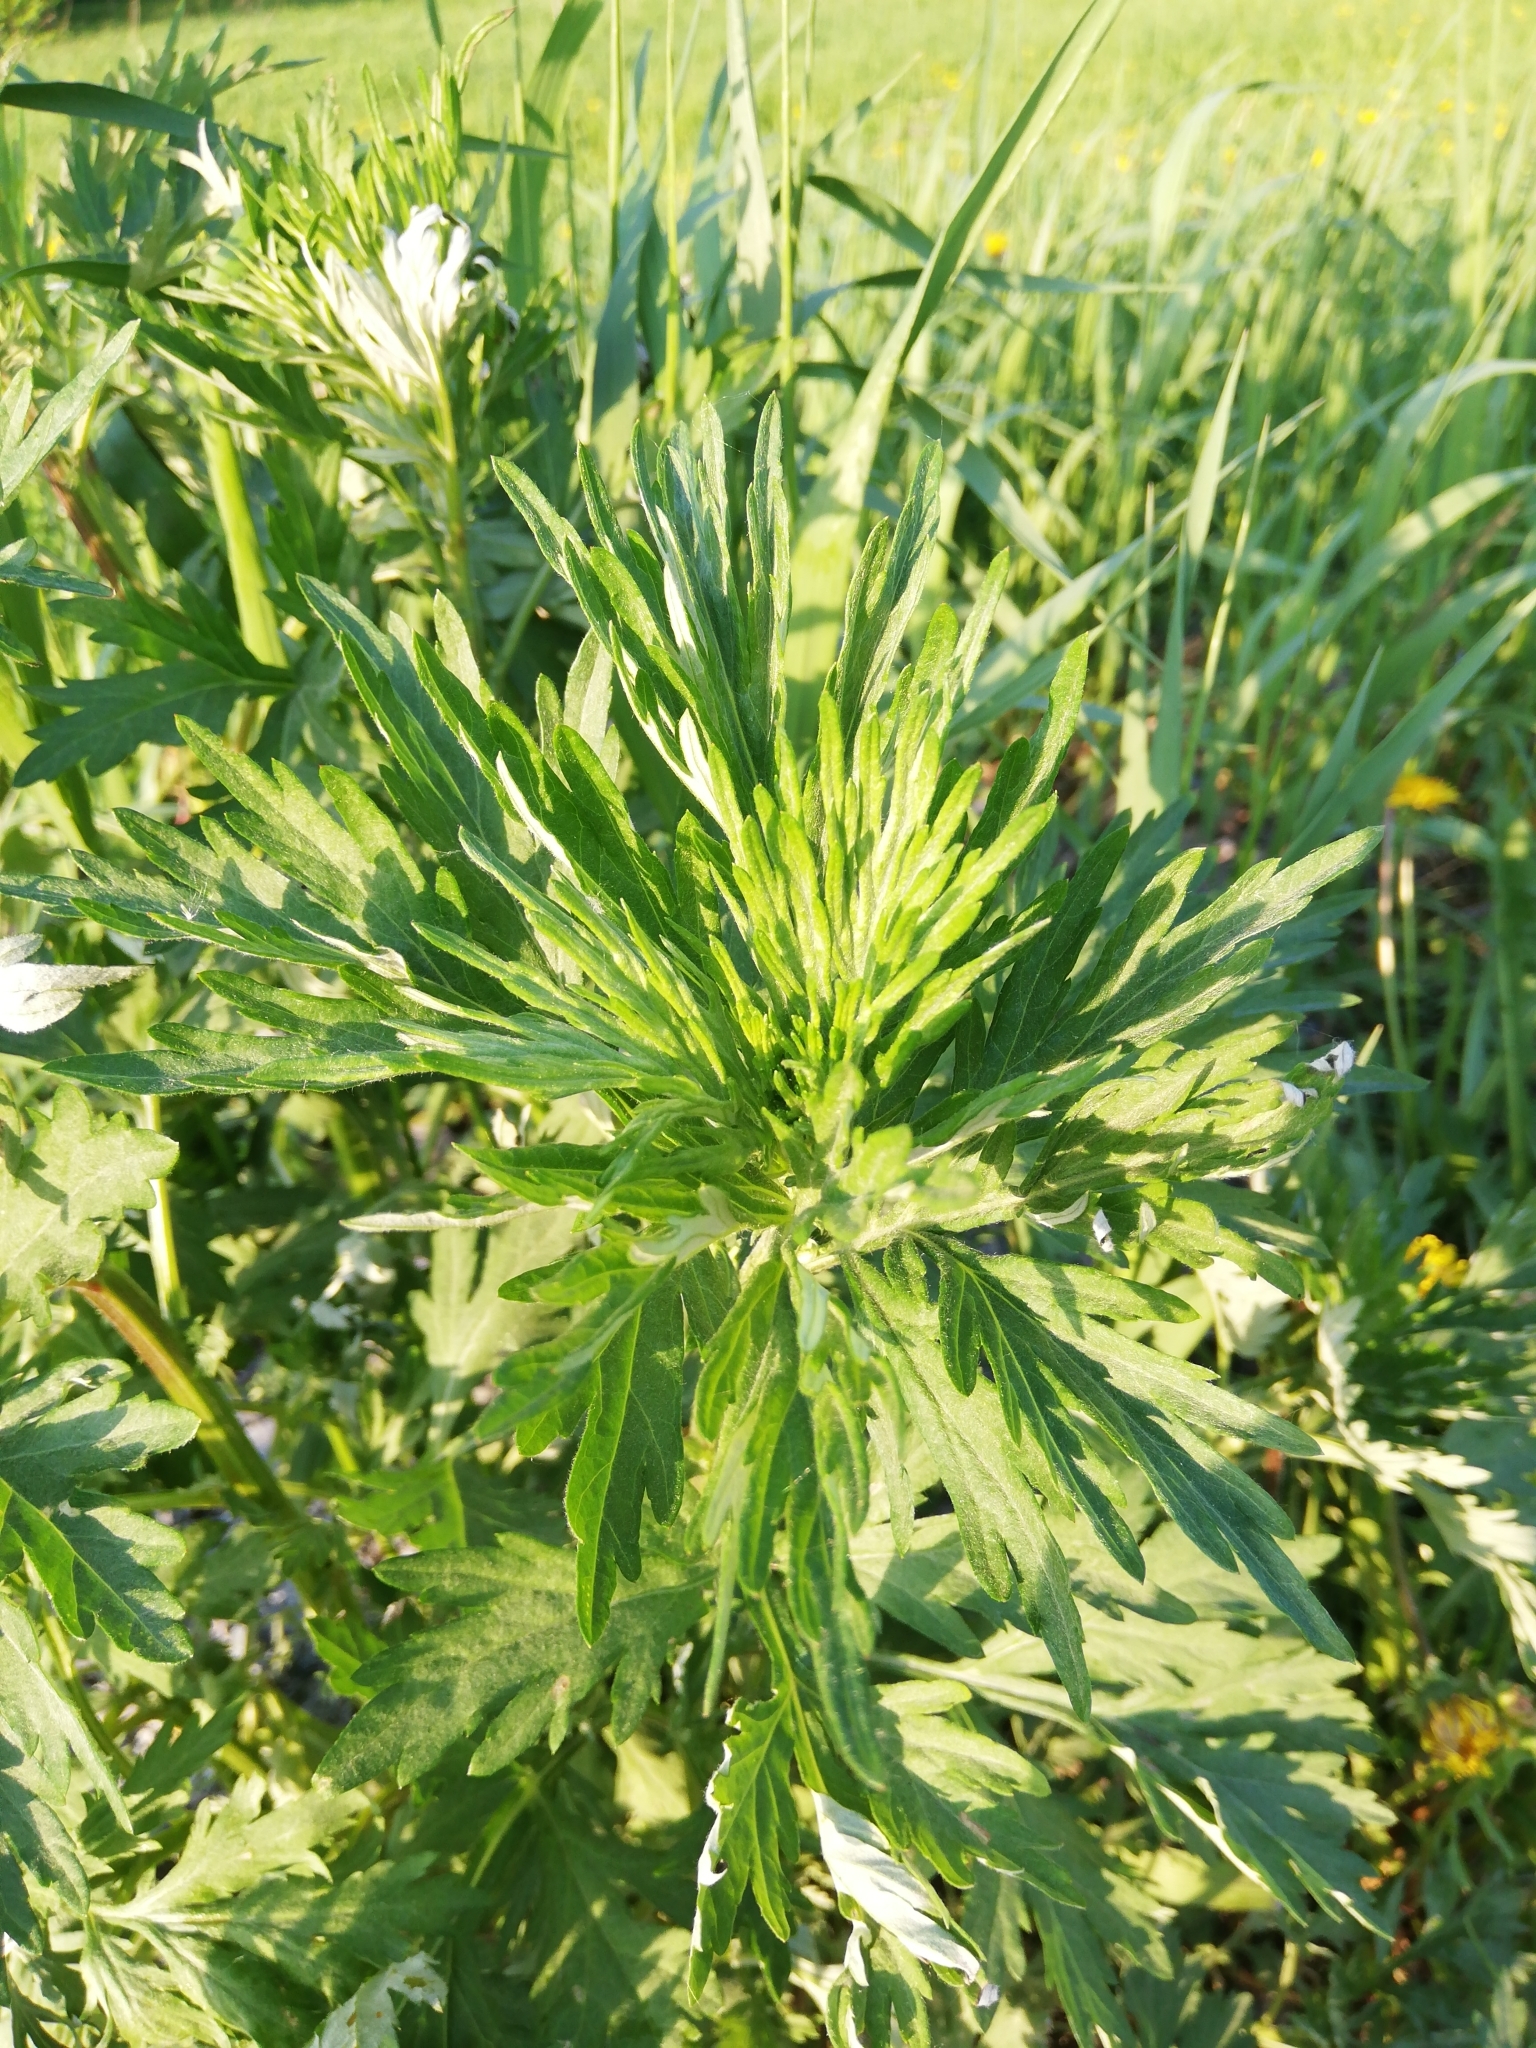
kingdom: Plantae
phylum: Tracheophyta
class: Magnoliopsida
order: Asterales
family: Asteraceae
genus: Artemisia
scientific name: Artemisia vulgaris
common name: Mugwort
